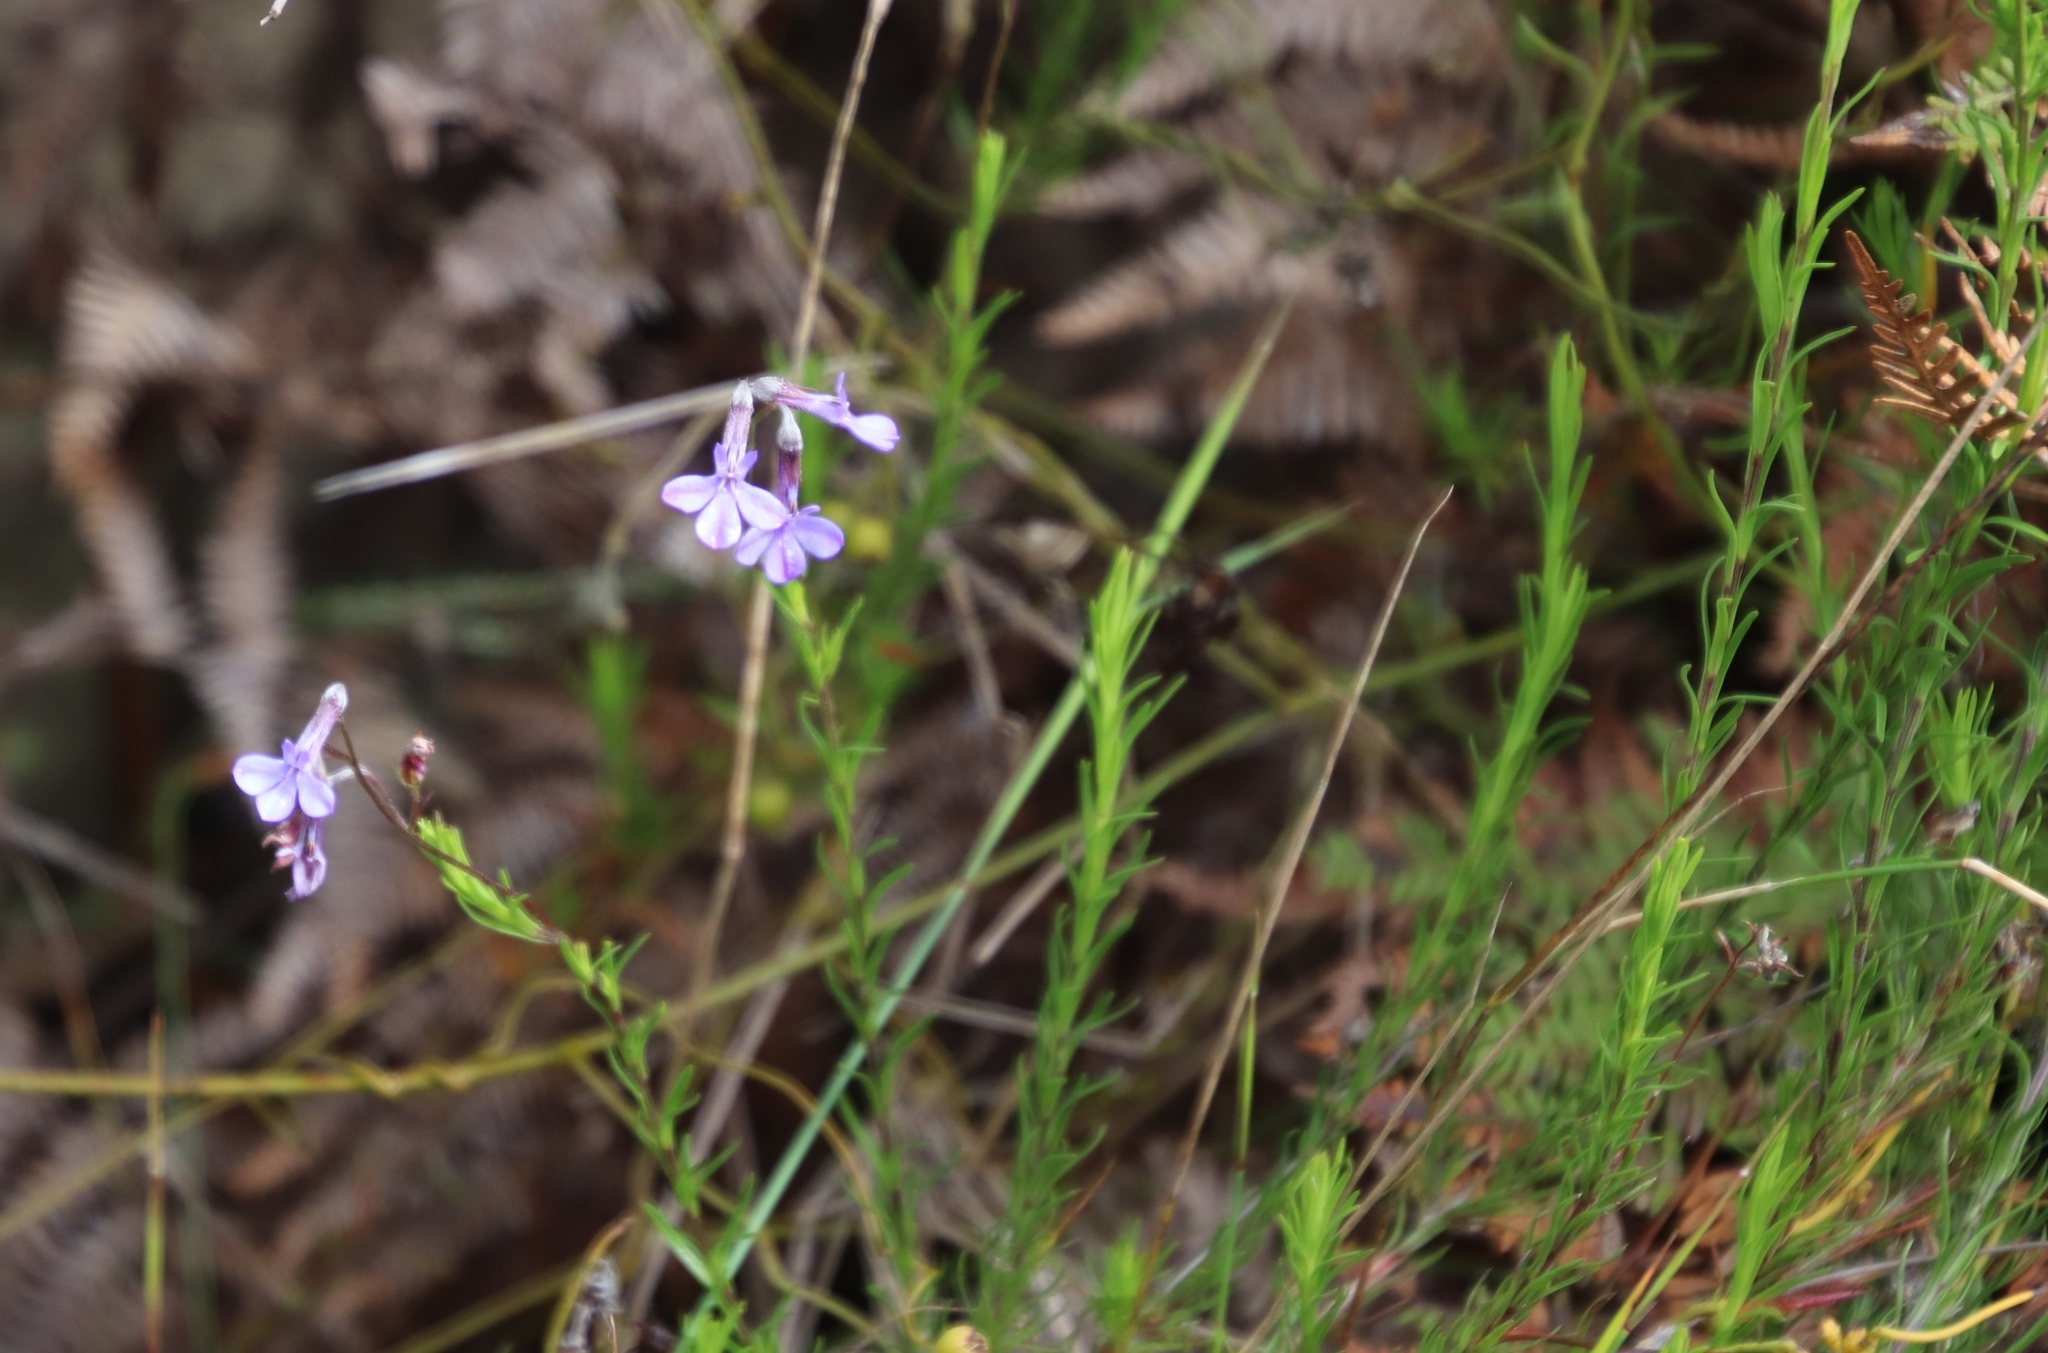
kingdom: Plantae
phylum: Tracheophyta
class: Magnoliopsida
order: Asterales
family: Campanulaceae
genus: Lobelia
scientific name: Lobelia pinifolia
